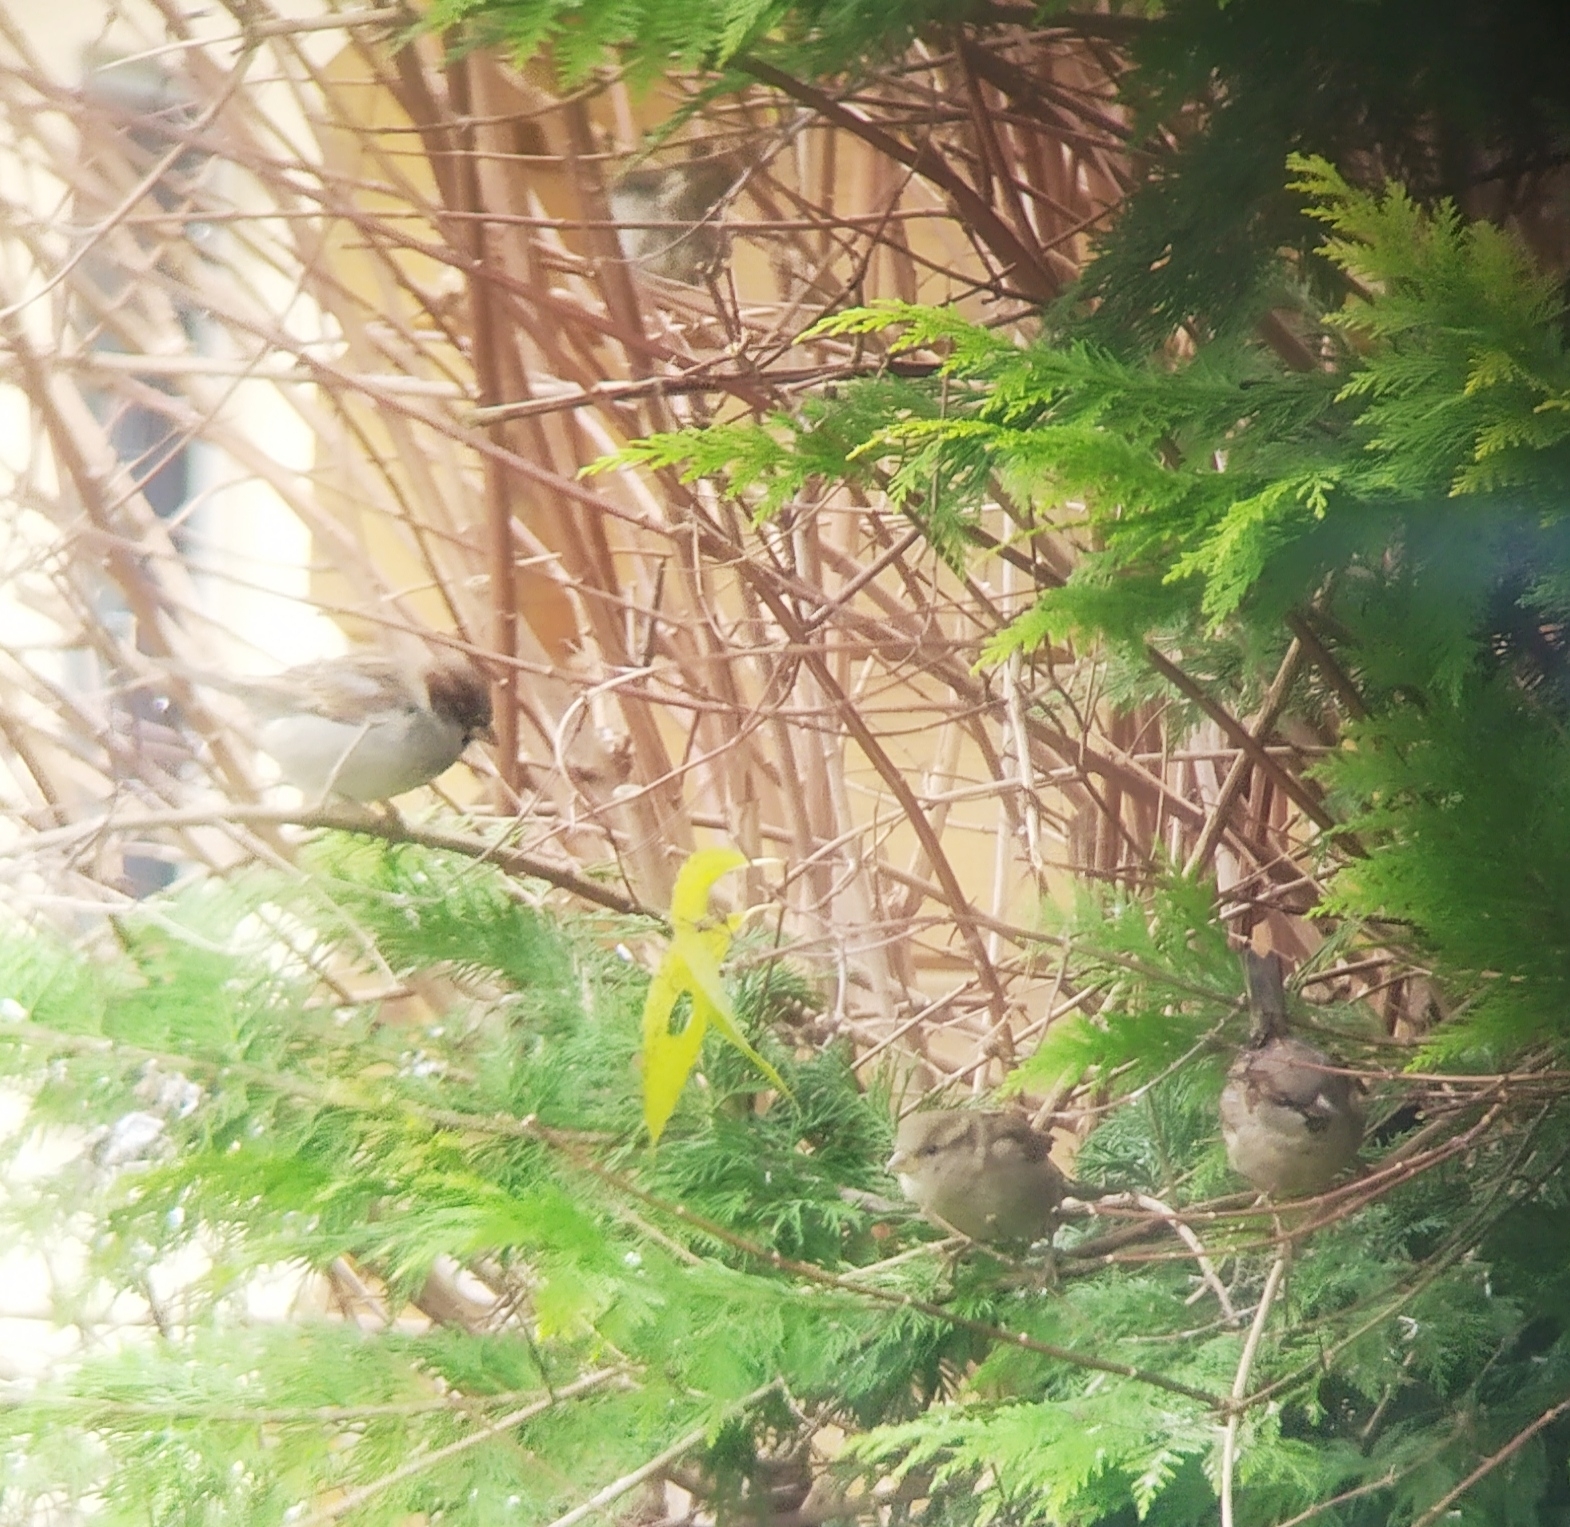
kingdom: Animalia
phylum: Chordata
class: Aves
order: Passeriformes
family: Passeridae
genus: Passer
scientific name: Passer domesticus
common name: House sparrow
